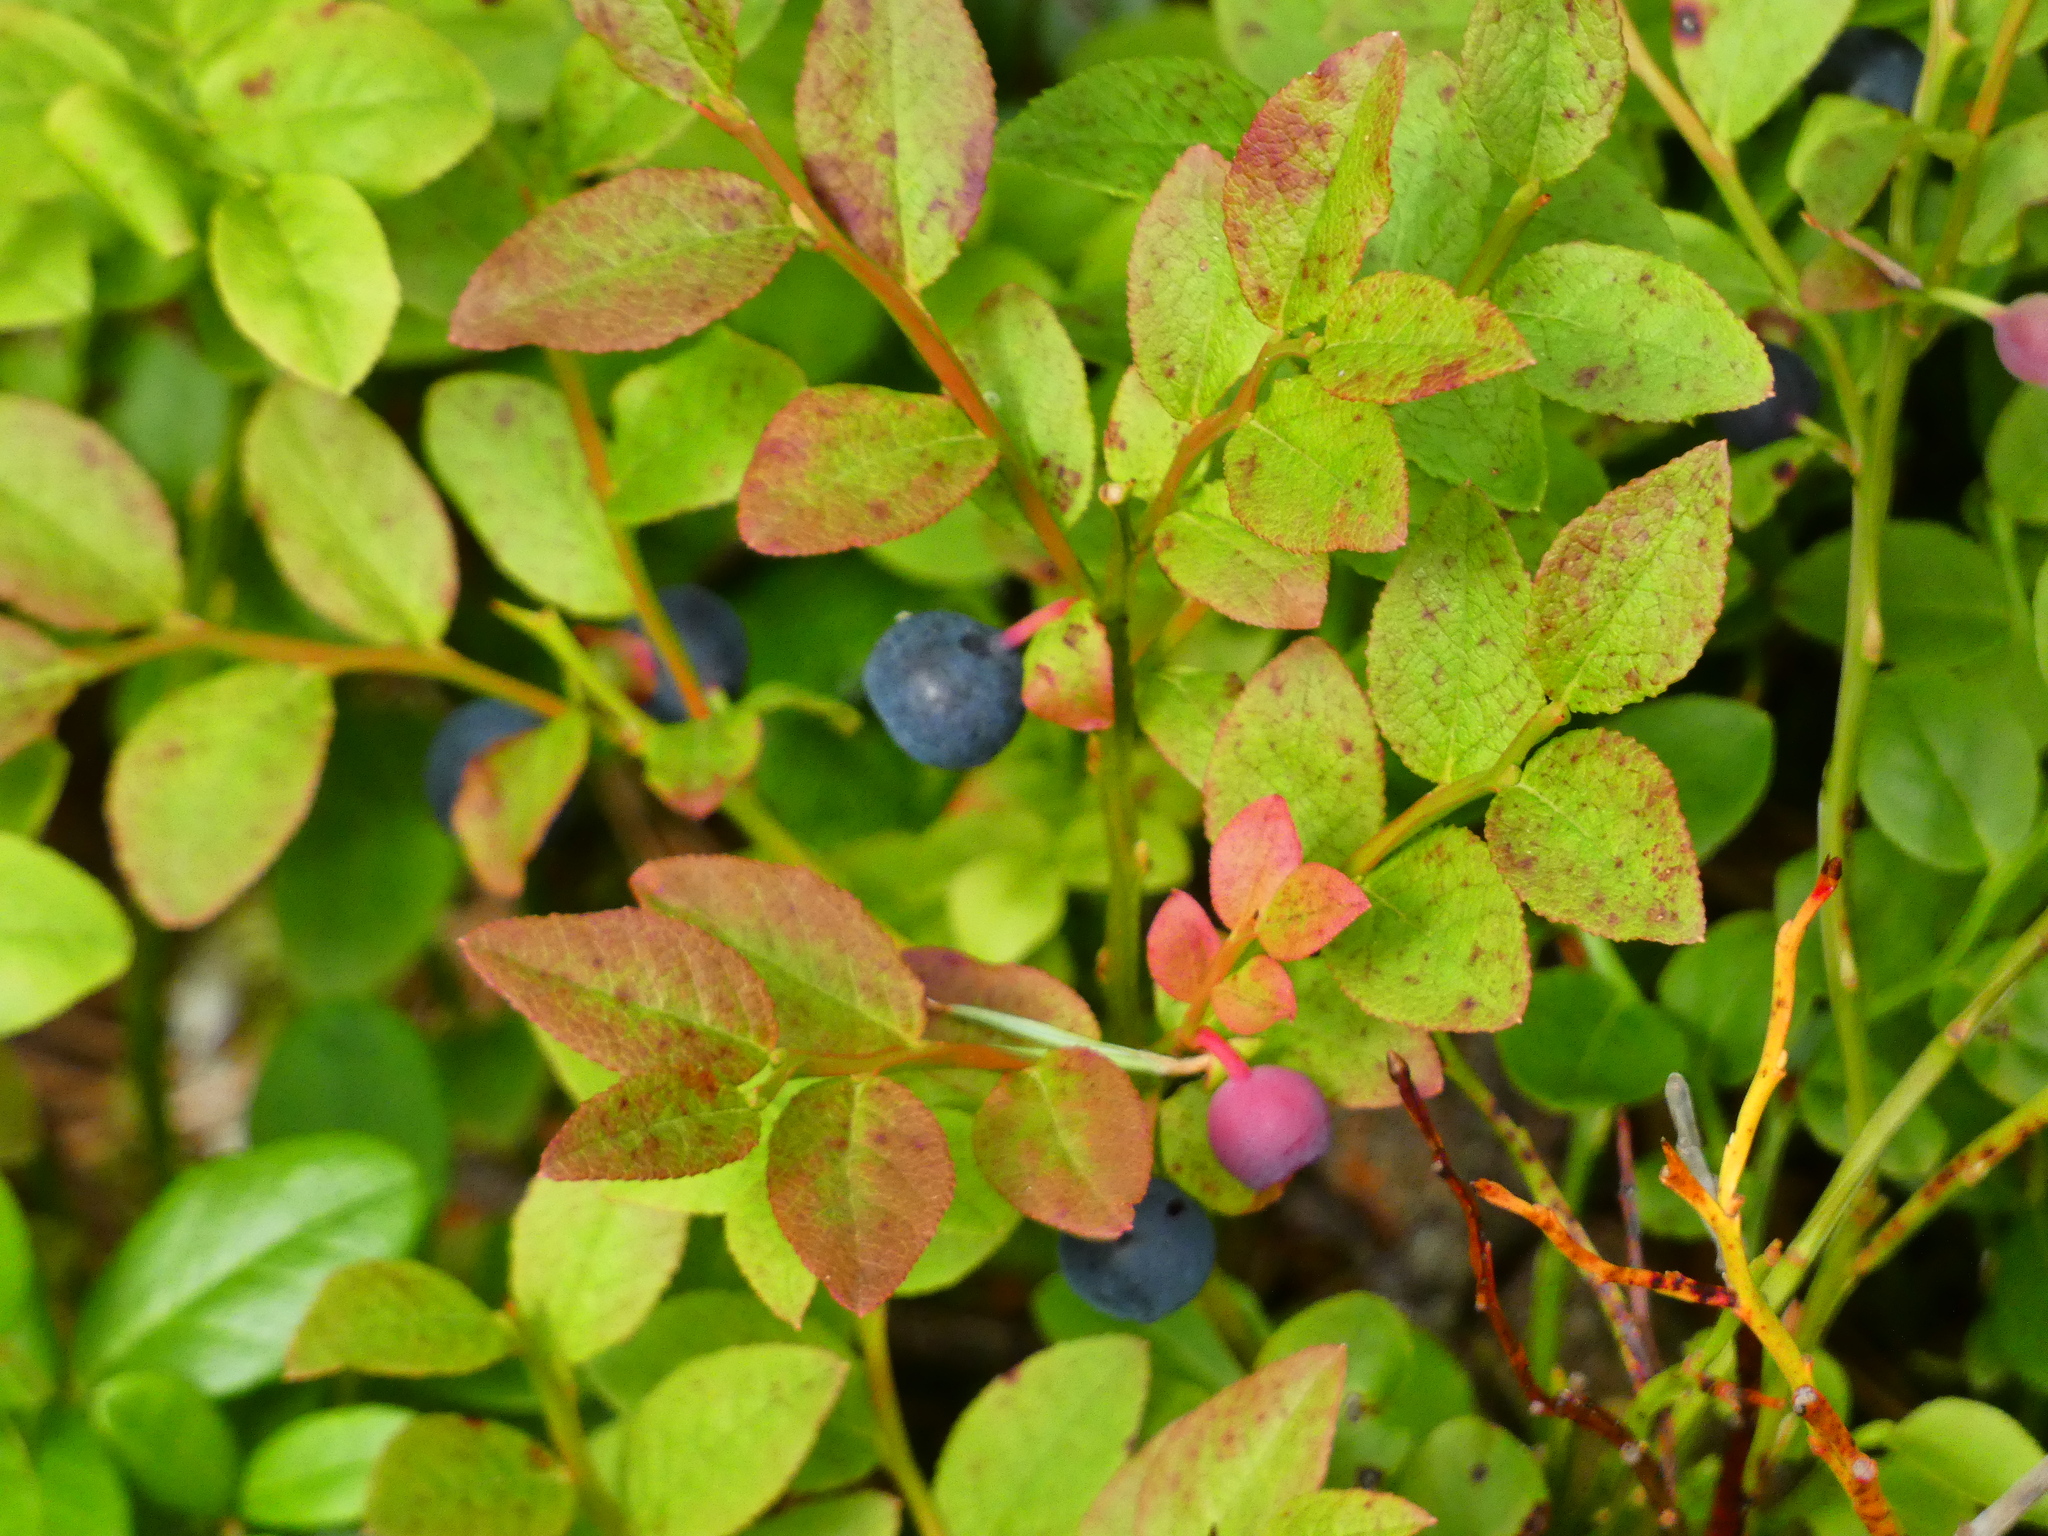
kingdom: Plantae
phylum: Tracheophyta
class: Magnoliopsida
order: Ericales
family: Ericaceae
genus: Vaccinium
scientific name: Vaccinium myrtillus
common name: Bilberry
